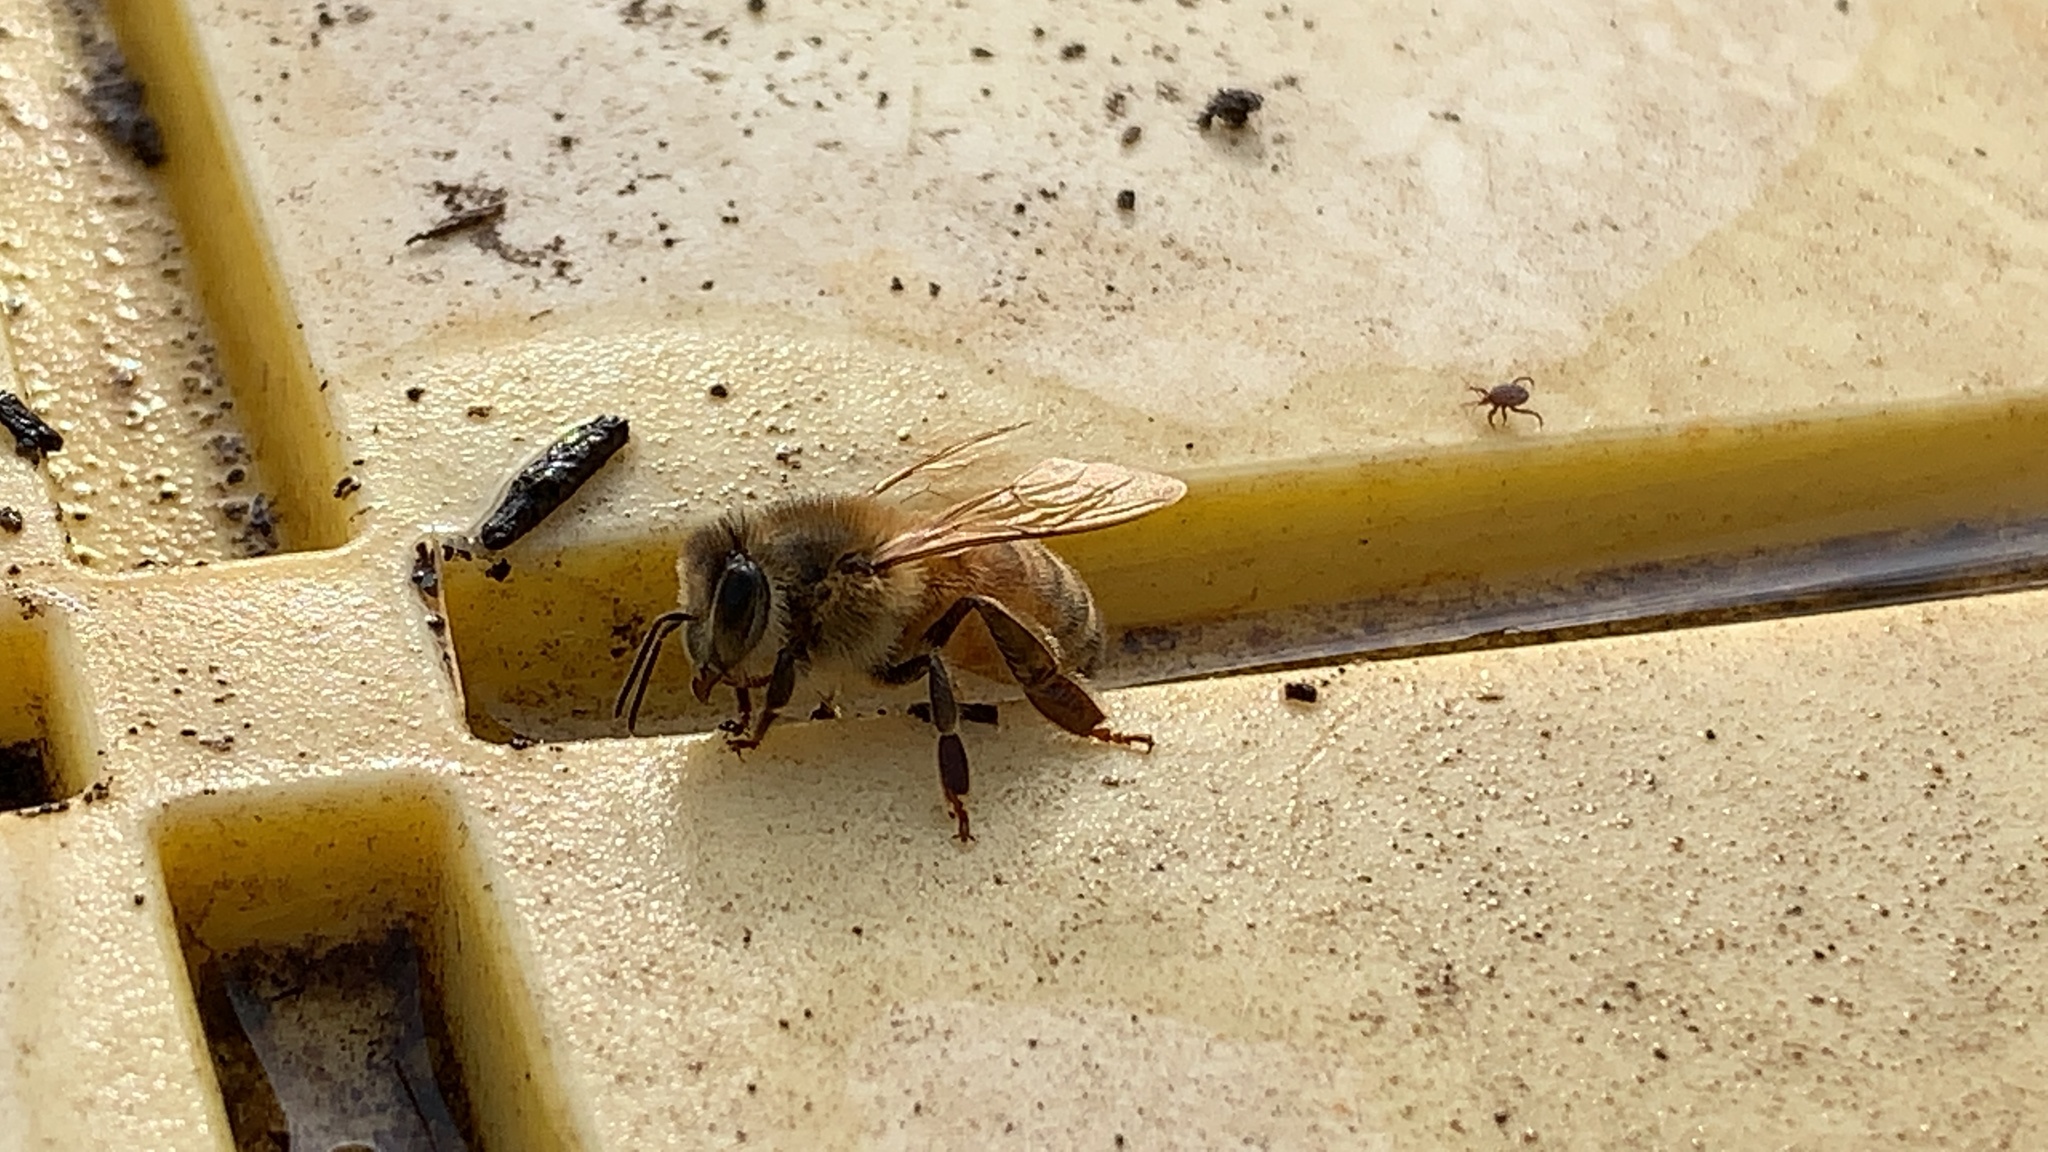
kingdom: Animalia
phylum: Arthropoda
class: Insecta
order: Hymenoptera
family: Apidae
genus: Apis
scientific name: Apis mellifera
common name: Honey bee
